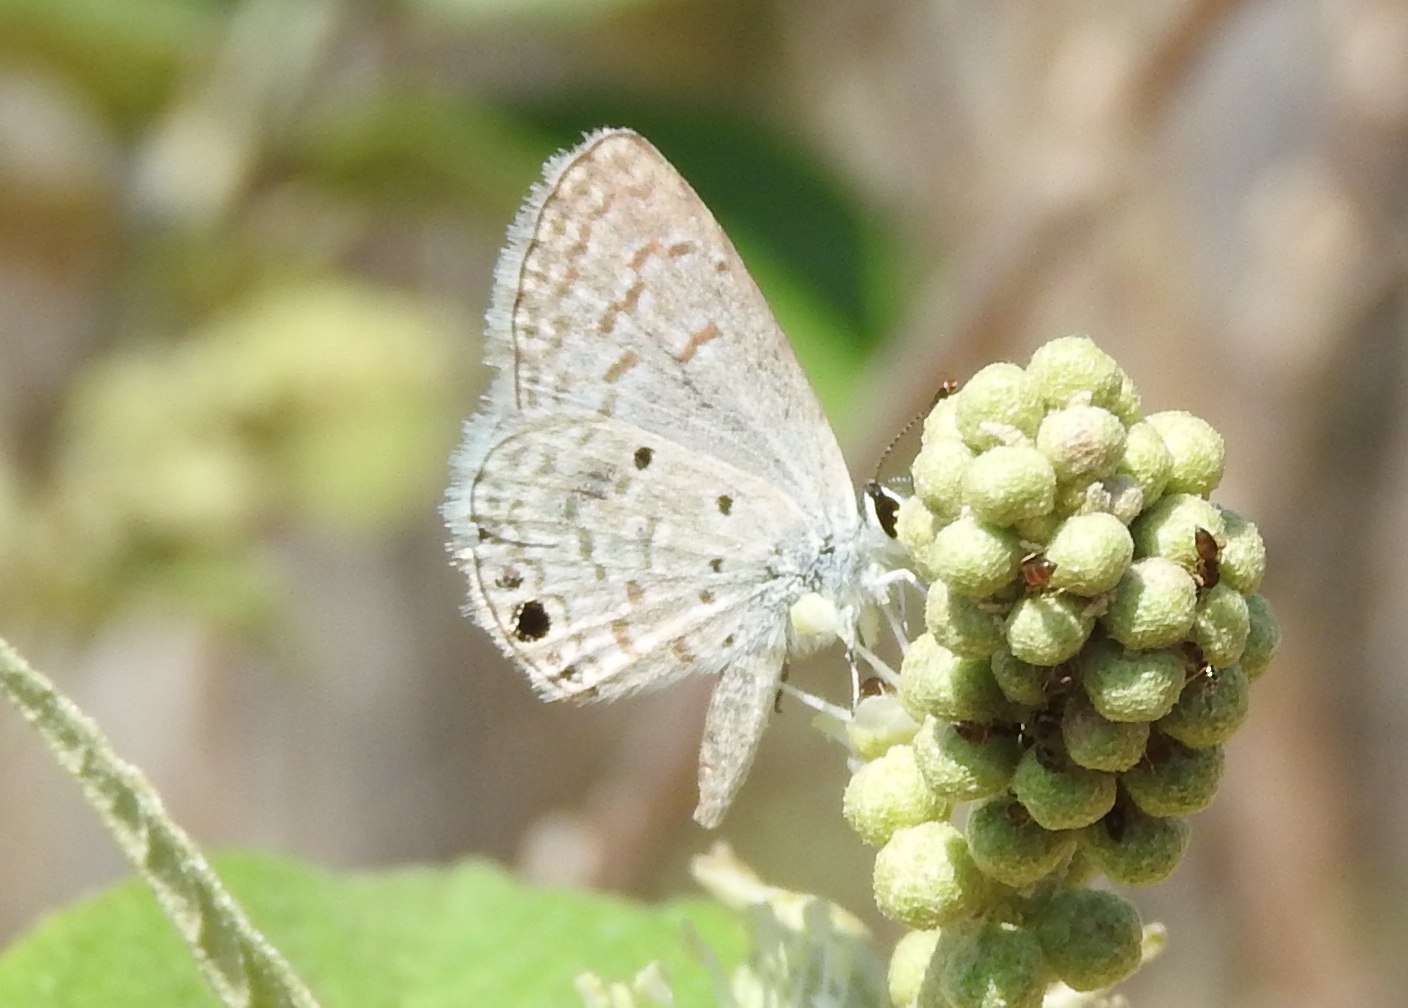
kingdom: Animalia
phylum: Arthropoda
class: Insecta
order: Lepidoptera
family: Lycaenidae
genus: Hemiargus
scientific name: Hemiargus ceraunus
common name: Ceraunus blue
